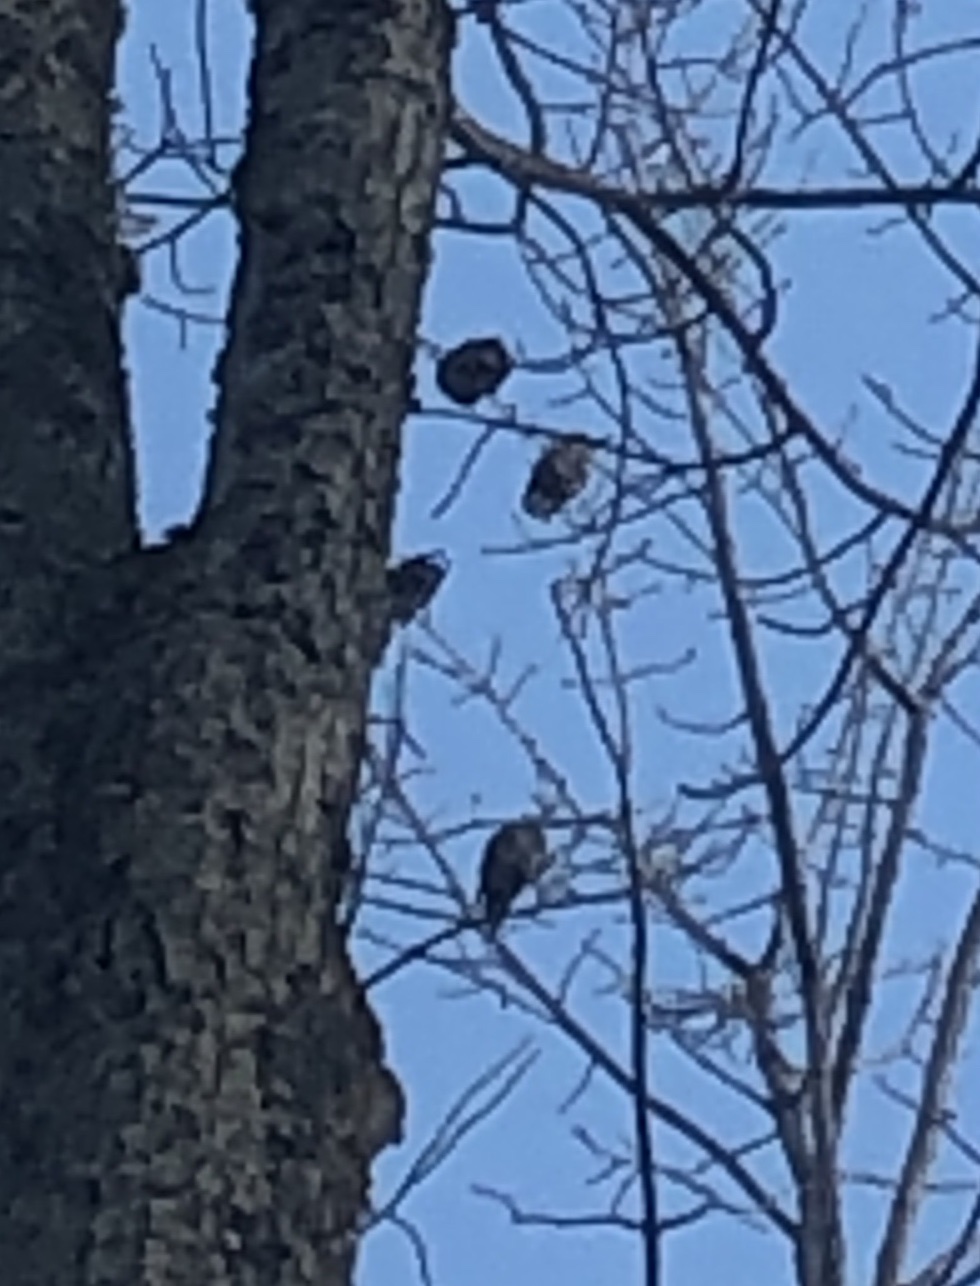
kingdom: Animalia
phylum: Chordata
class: Aves
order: Passeriformes
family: Sturnidae
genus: Sturnus
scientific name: Sturnus vulgaris
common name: Common starling
